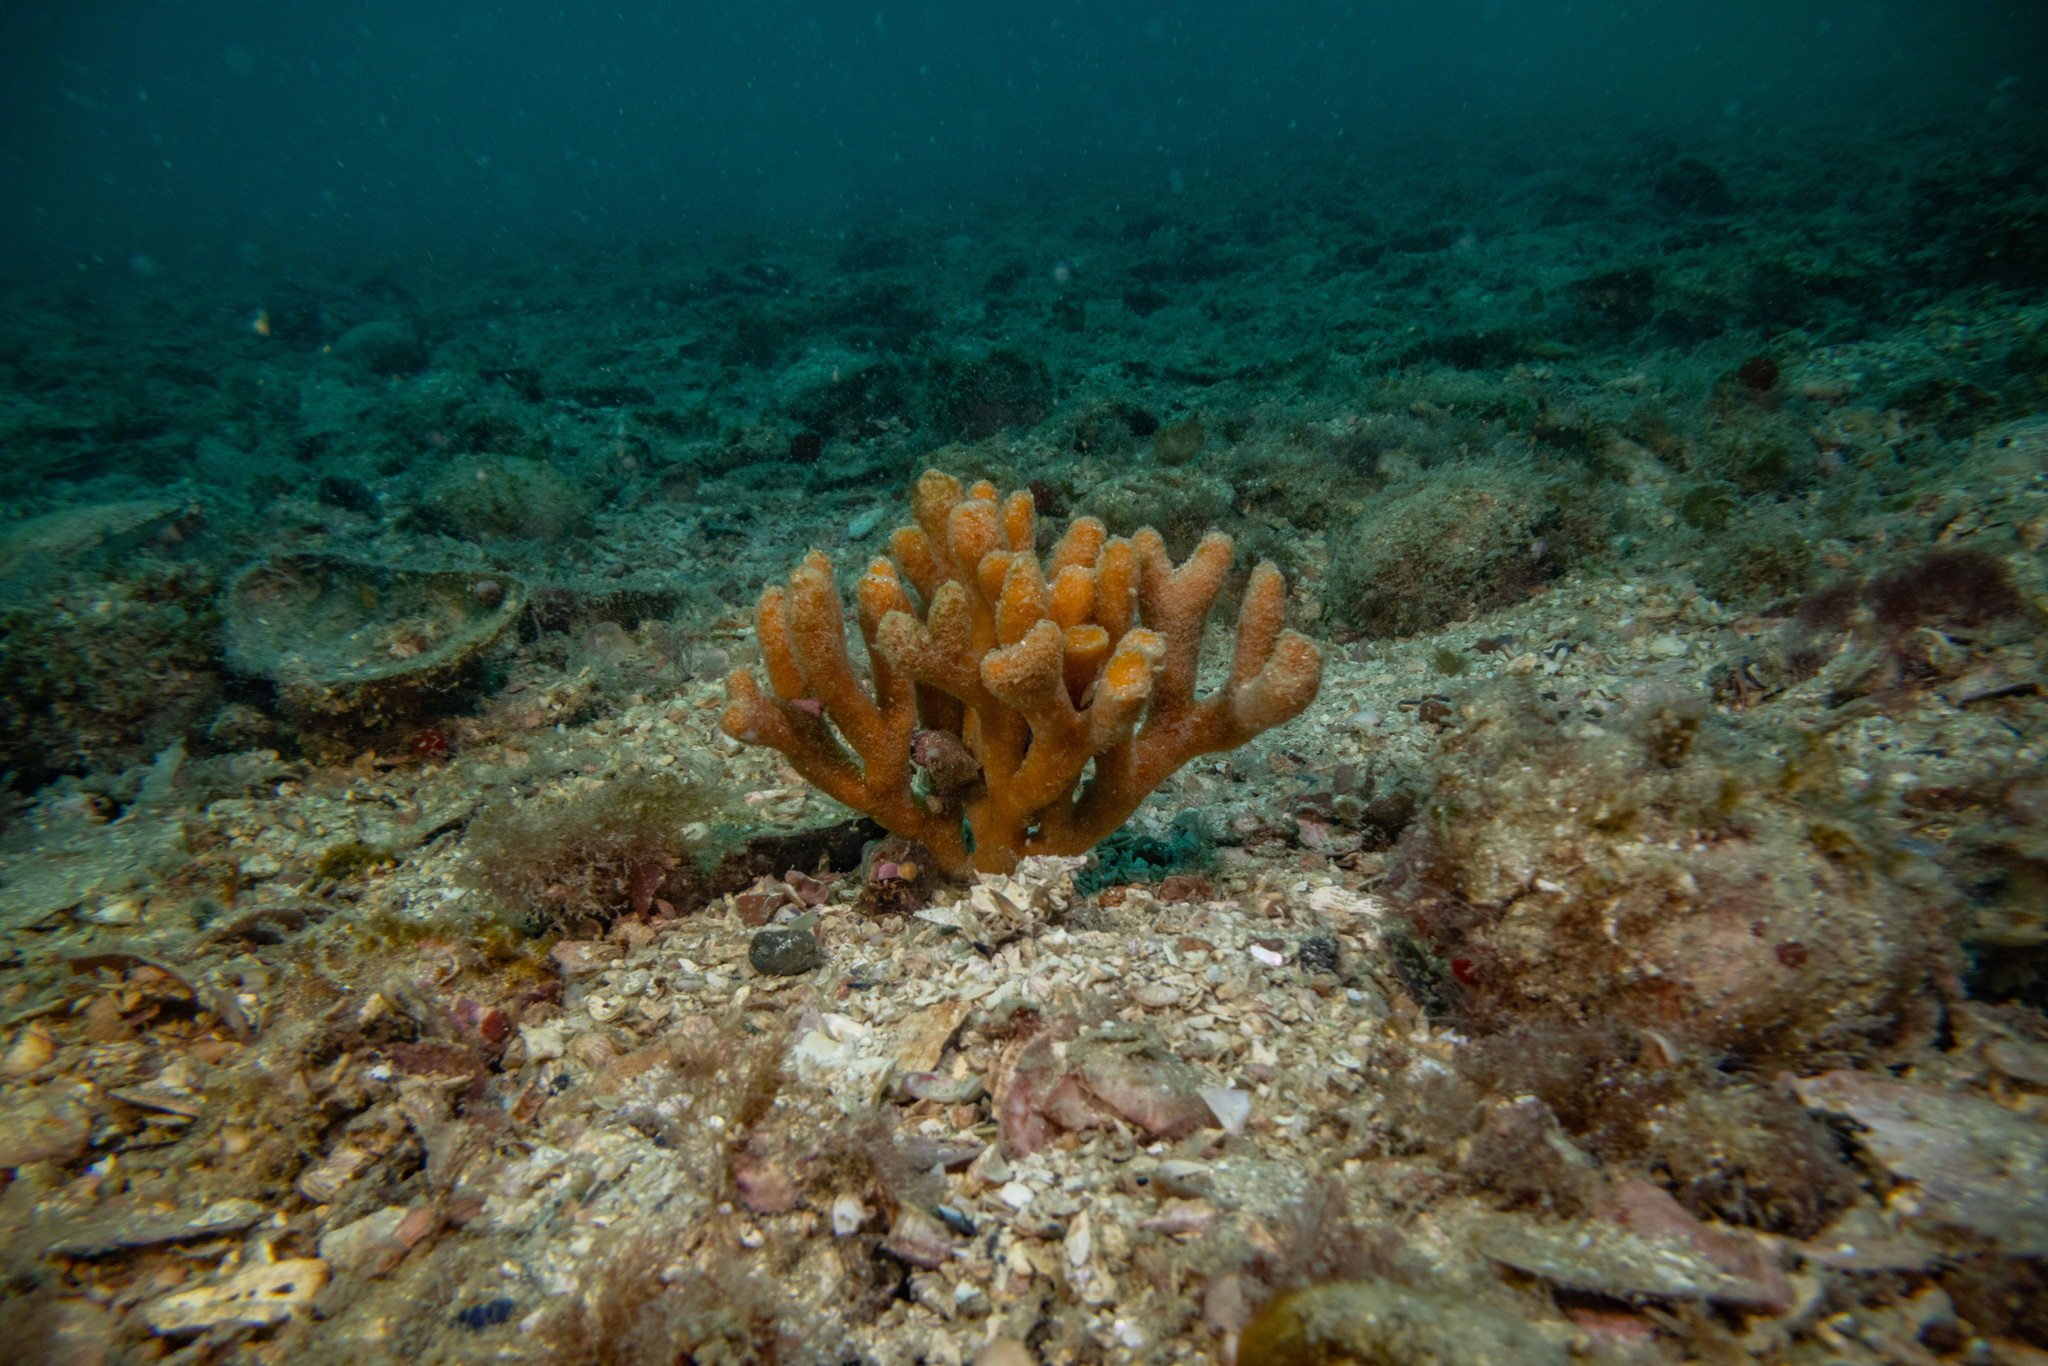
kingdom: Animalia
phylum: Porifera
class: Demospongiae
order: Axinellida
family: Raspailiidae
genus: Raspailia
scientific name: Raspailia topsenti
